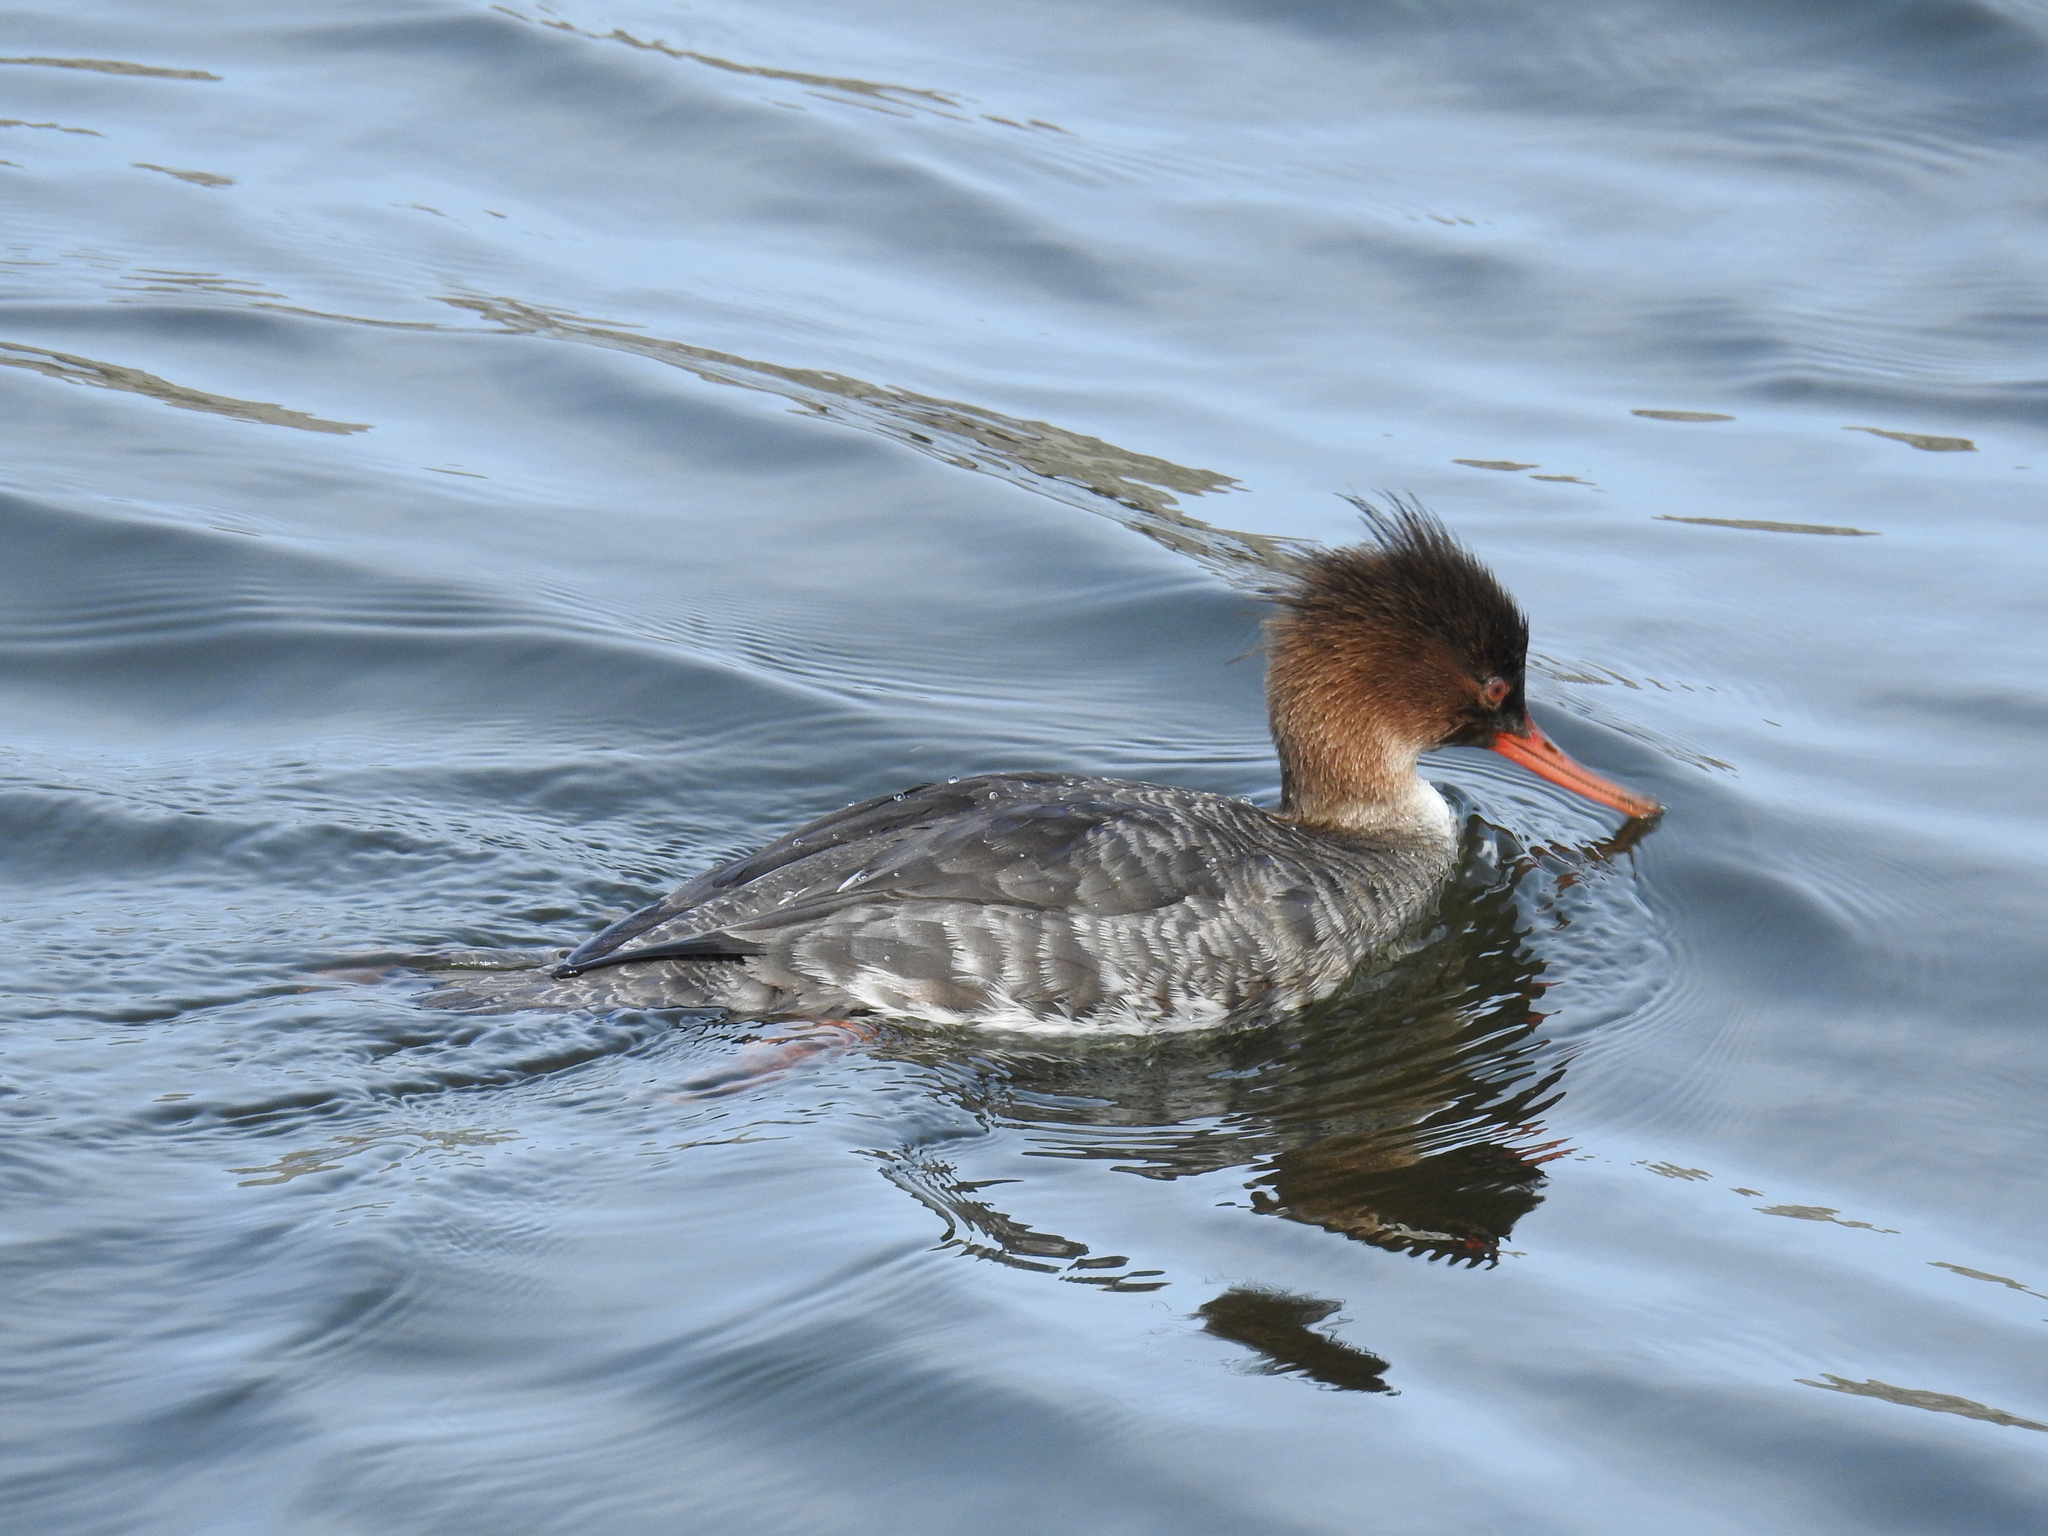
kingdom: Animalia
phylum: Chordata
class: Aves
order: Anseriformes
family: Anatidae
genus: Mergus
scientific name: Mergus serrator
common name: Red-breasted merganser
